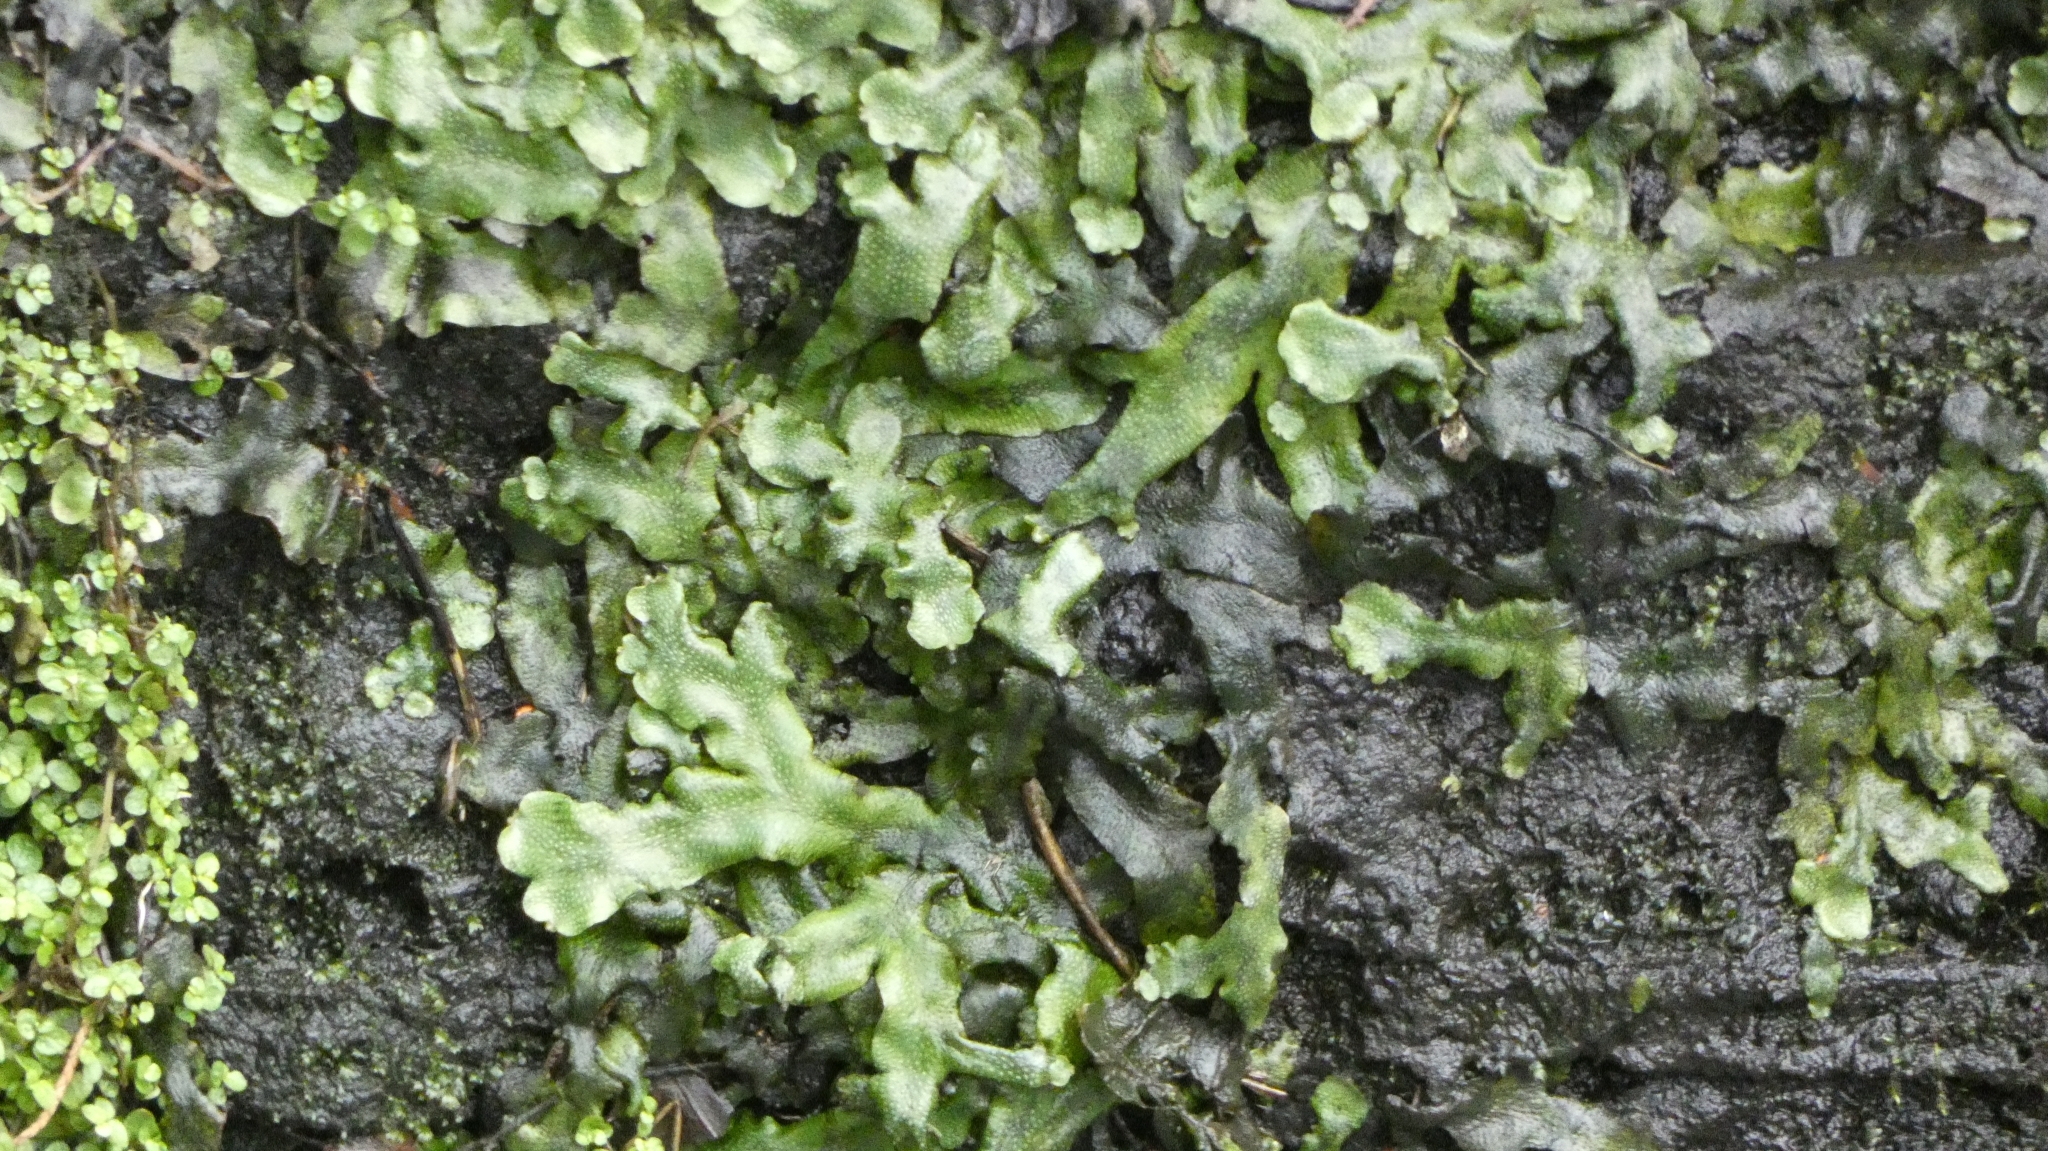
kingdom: Plantae
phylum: Marchantiophyta
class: Marchantiopsida
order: Marchantiales
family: Conocephalaceae
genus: Conocephalum
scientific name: Conocephalum conicum
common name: Great scented liverwort
